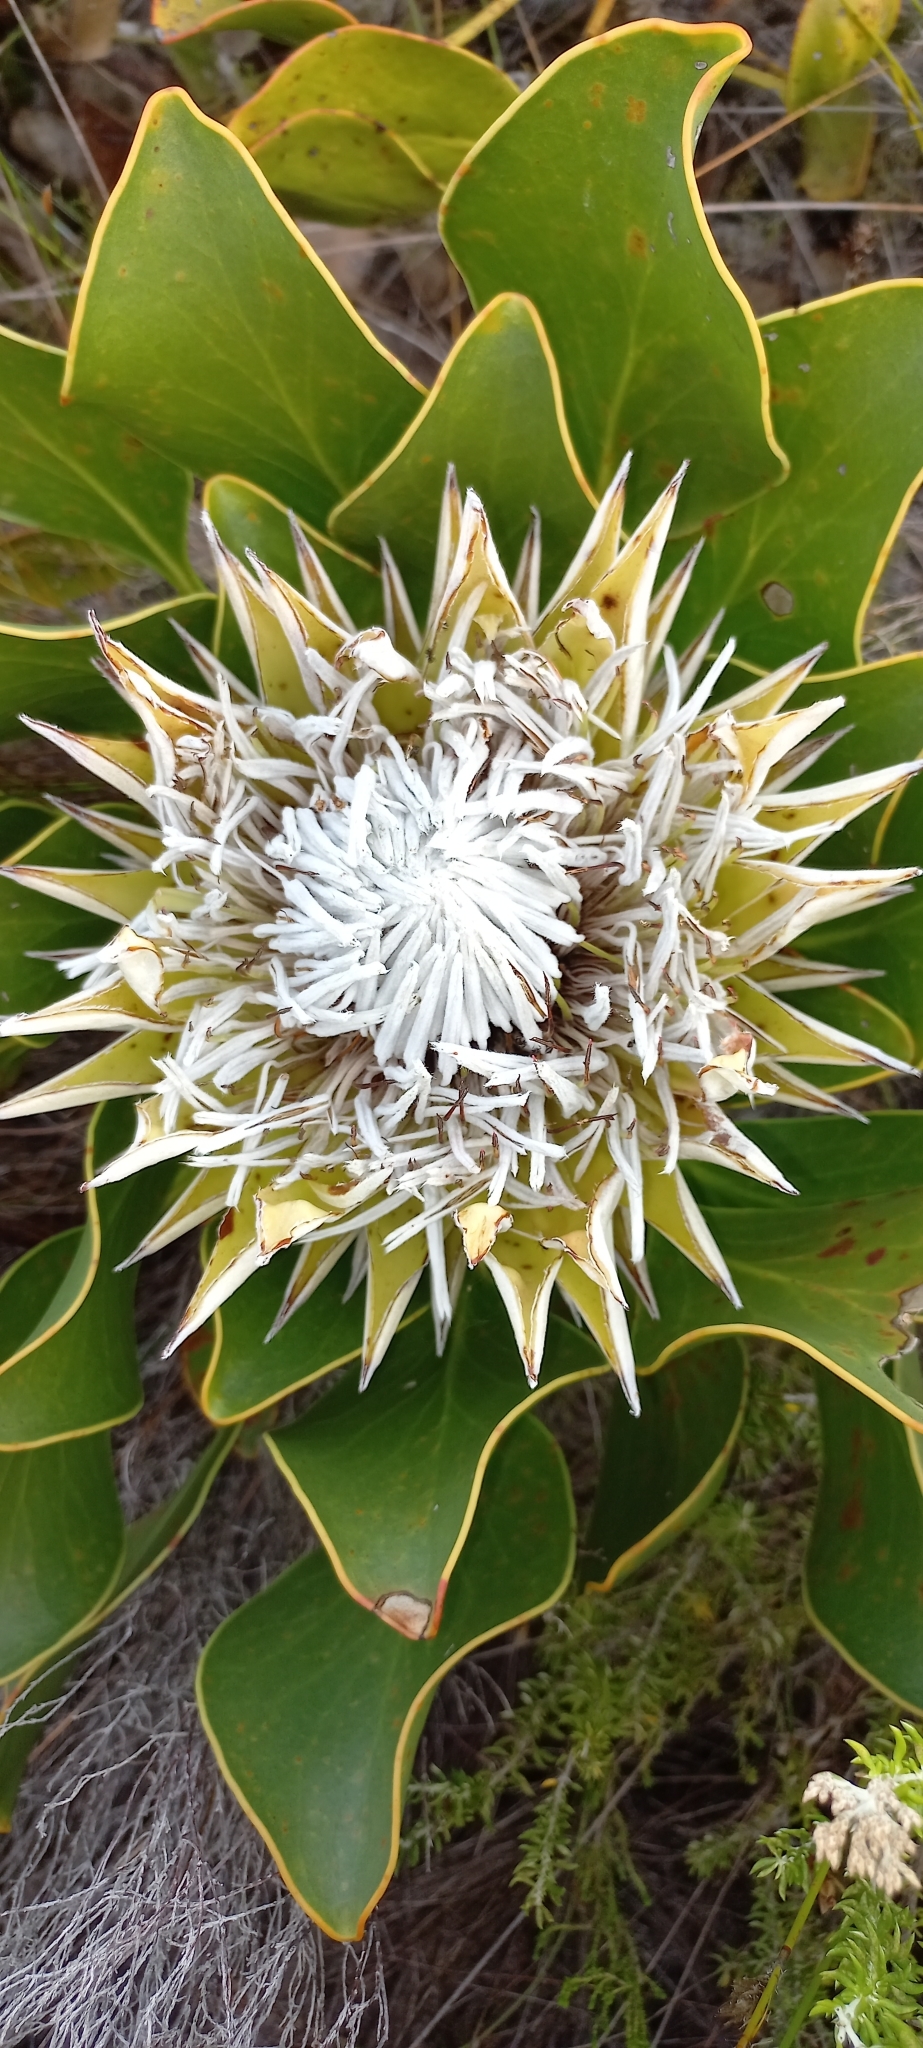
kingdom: Plantae
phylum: Tracheophyta
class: Magnoliopsida
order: Proteales
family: Proteaceae
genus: Protea
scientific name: Protea cynaroides
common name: King protea
